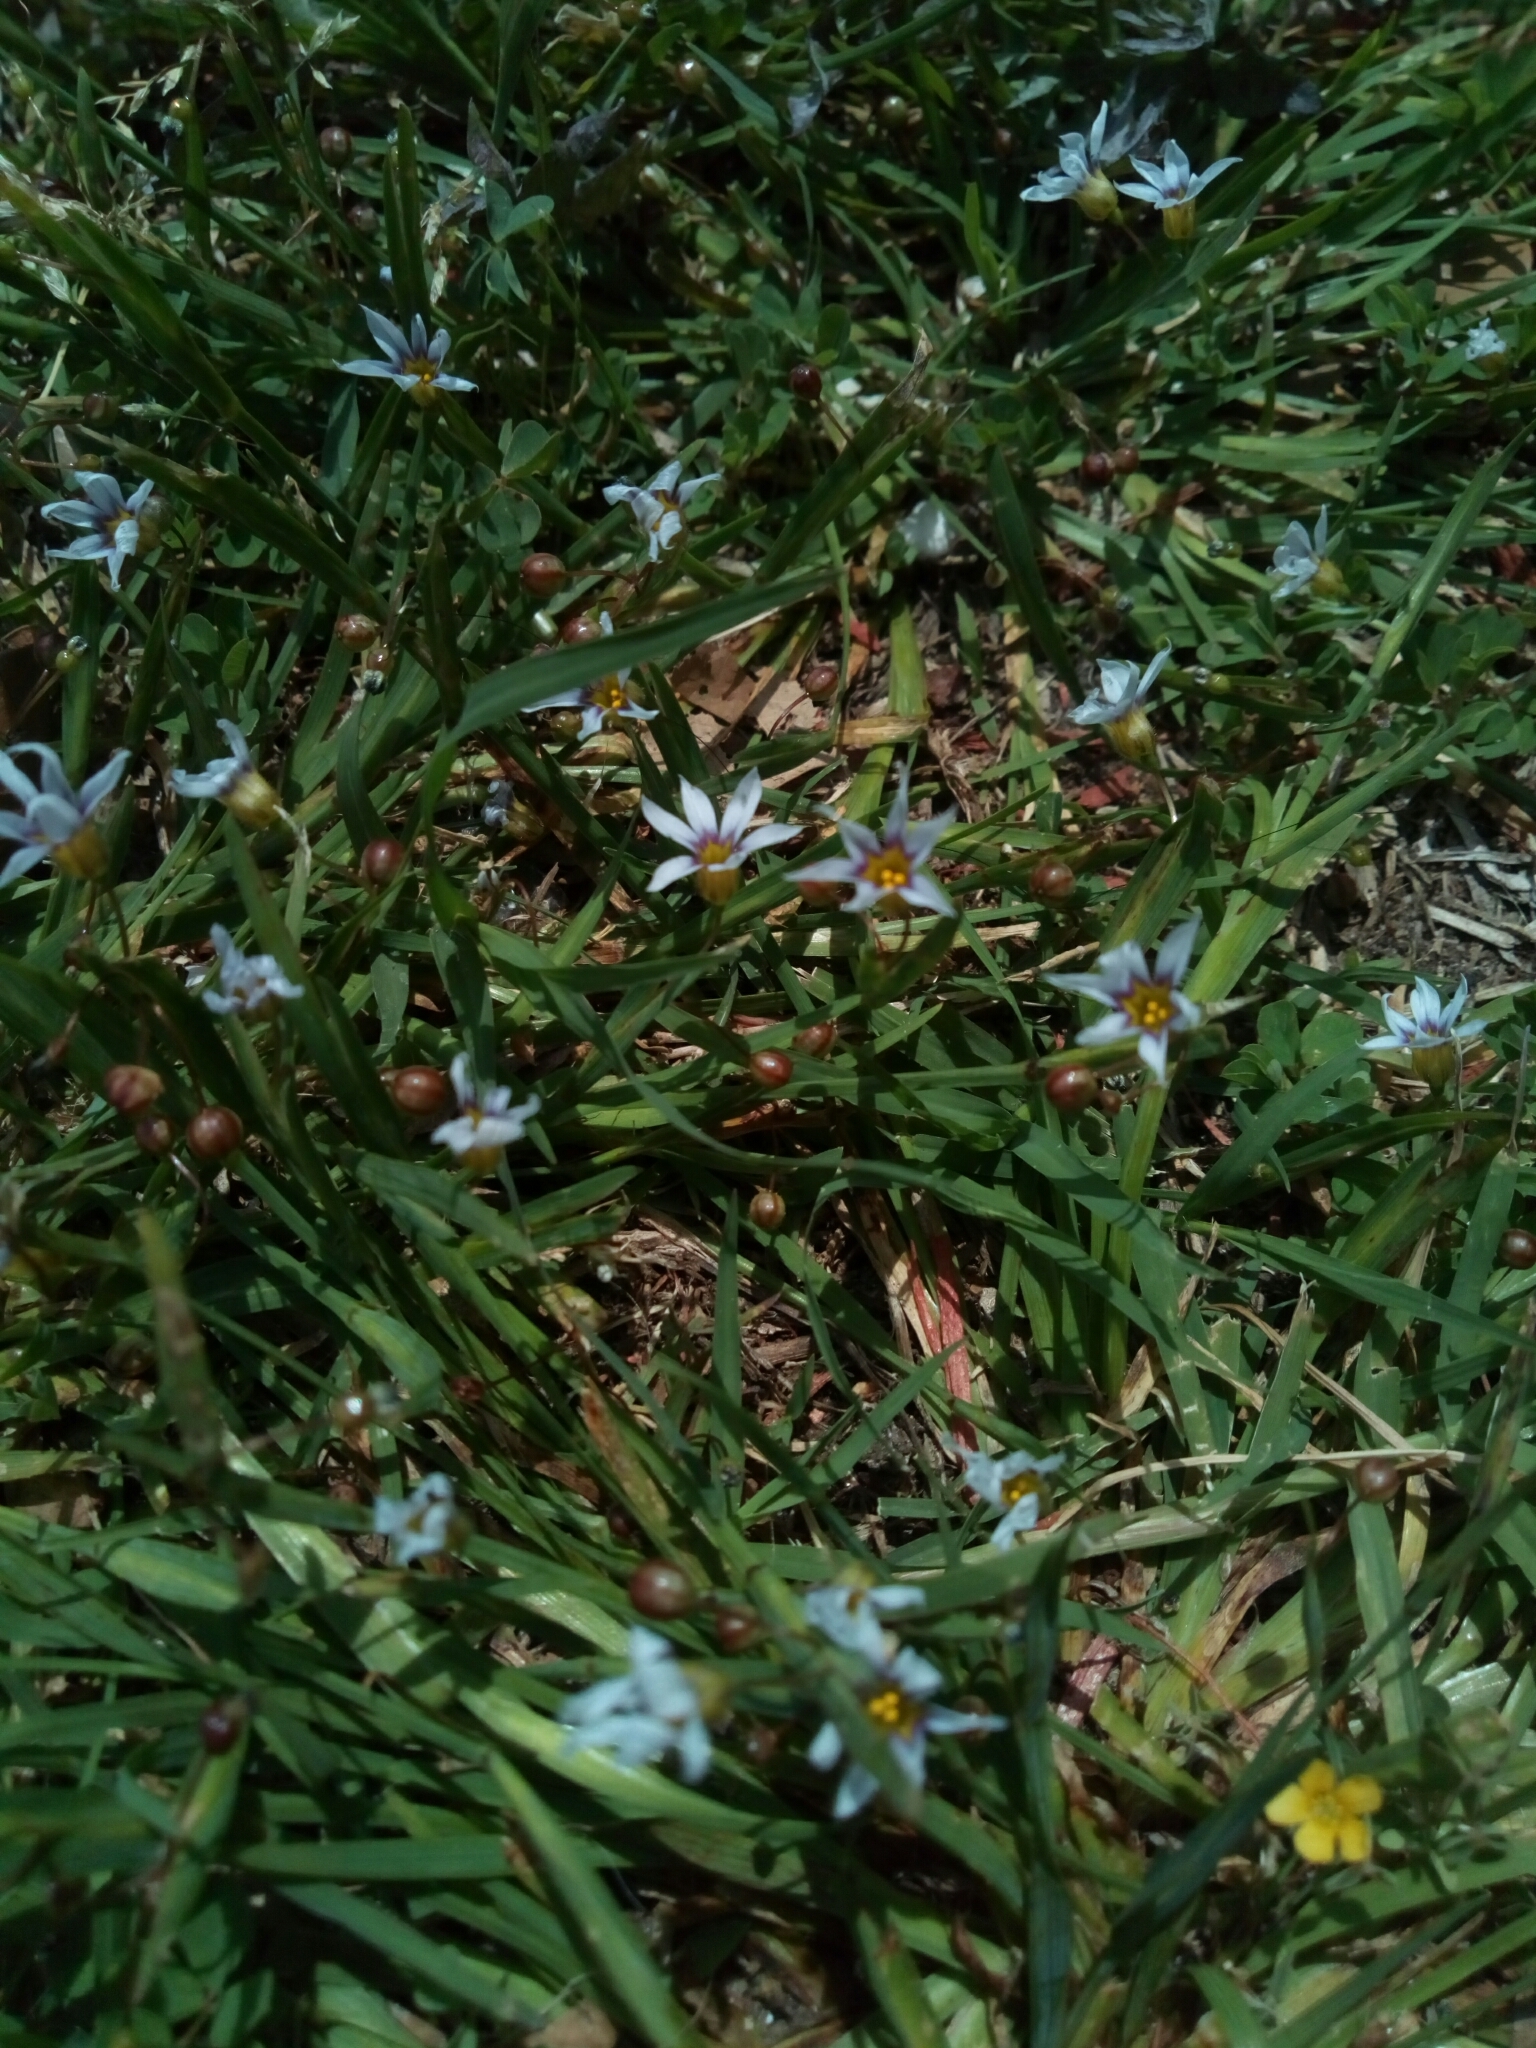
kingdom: Plantae
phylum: Tracheophyta
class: Liliopsida
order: Asparagales
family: Iridaceae
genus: Sisyrinchium
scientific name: Sisyrinchium micranthum
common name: Bermuda pigroot
